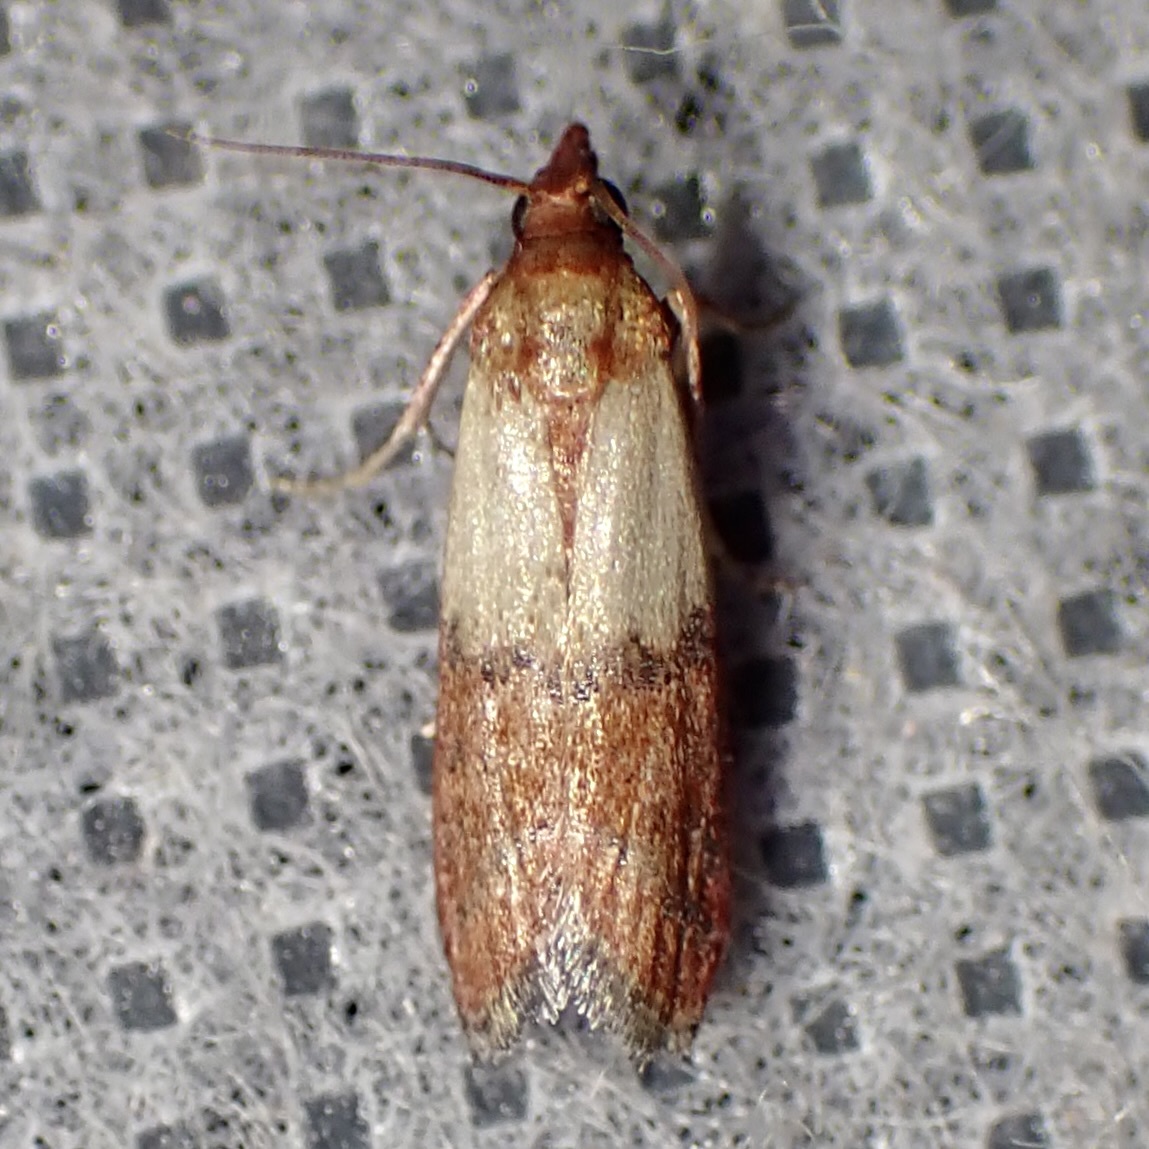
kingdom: Animalia
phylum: Arthropoda
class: Insecta
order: Lepidoptera
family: Pyralidae
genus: Plodia
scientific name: Plodia interpunctella
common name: Indian meal moth
